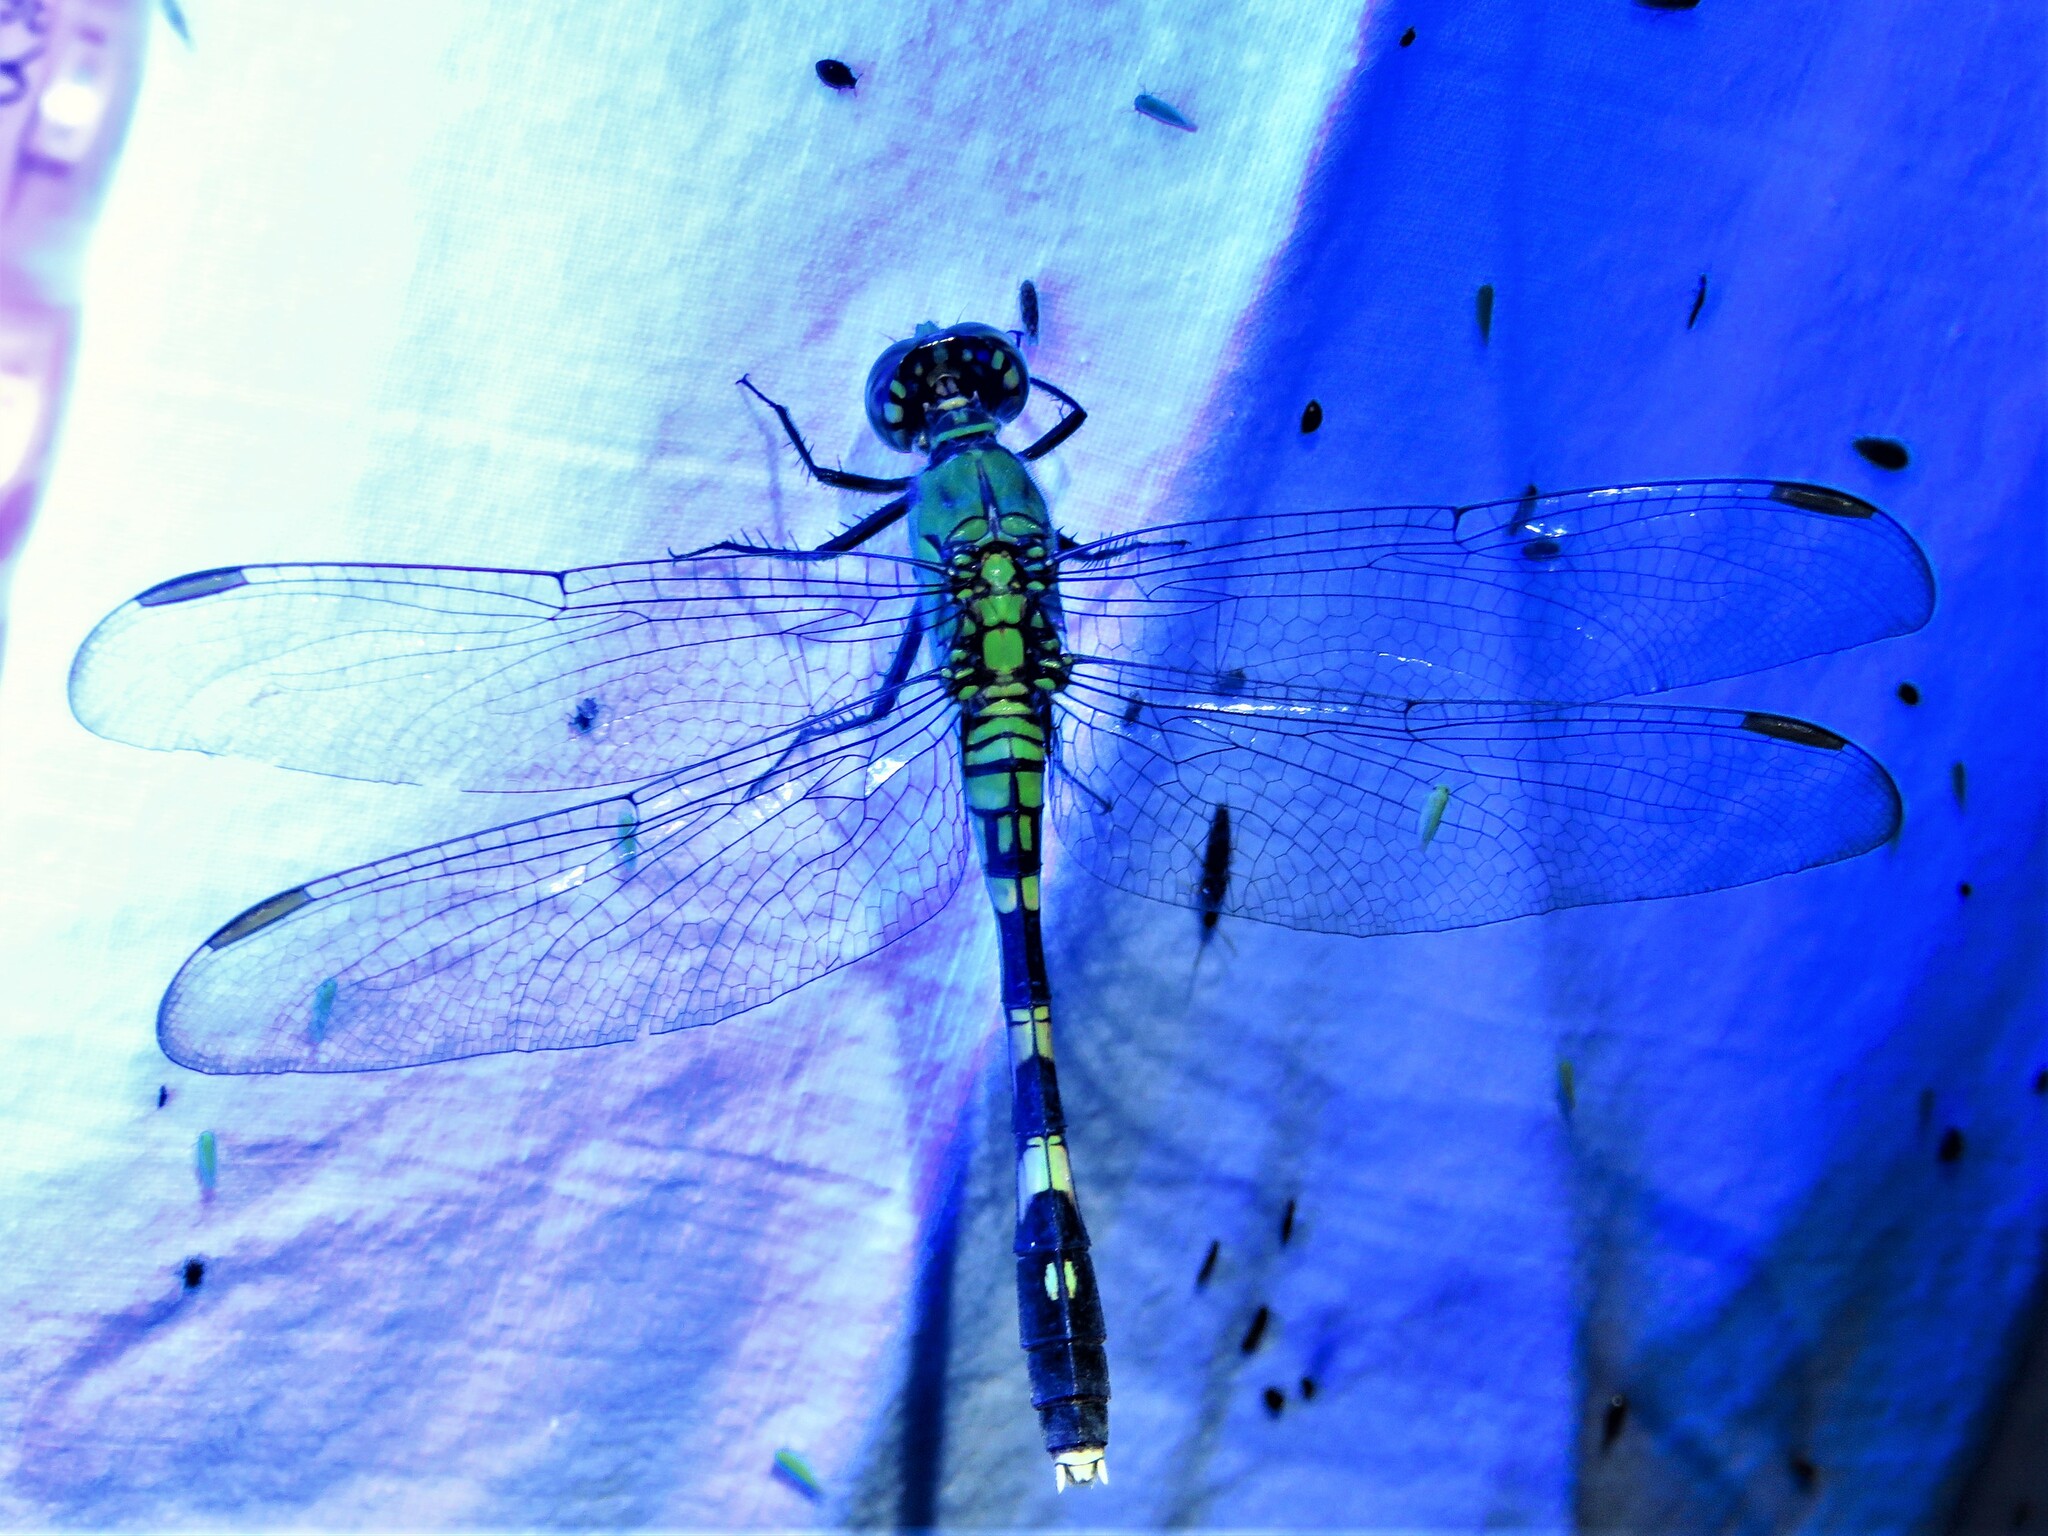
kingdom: Animalia
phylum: Arthropoda
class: Insecta
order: Odonata
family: Libellulidae
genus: Erythemis
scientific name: Erythemis simplicicollis
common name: Eastern pondhawk
